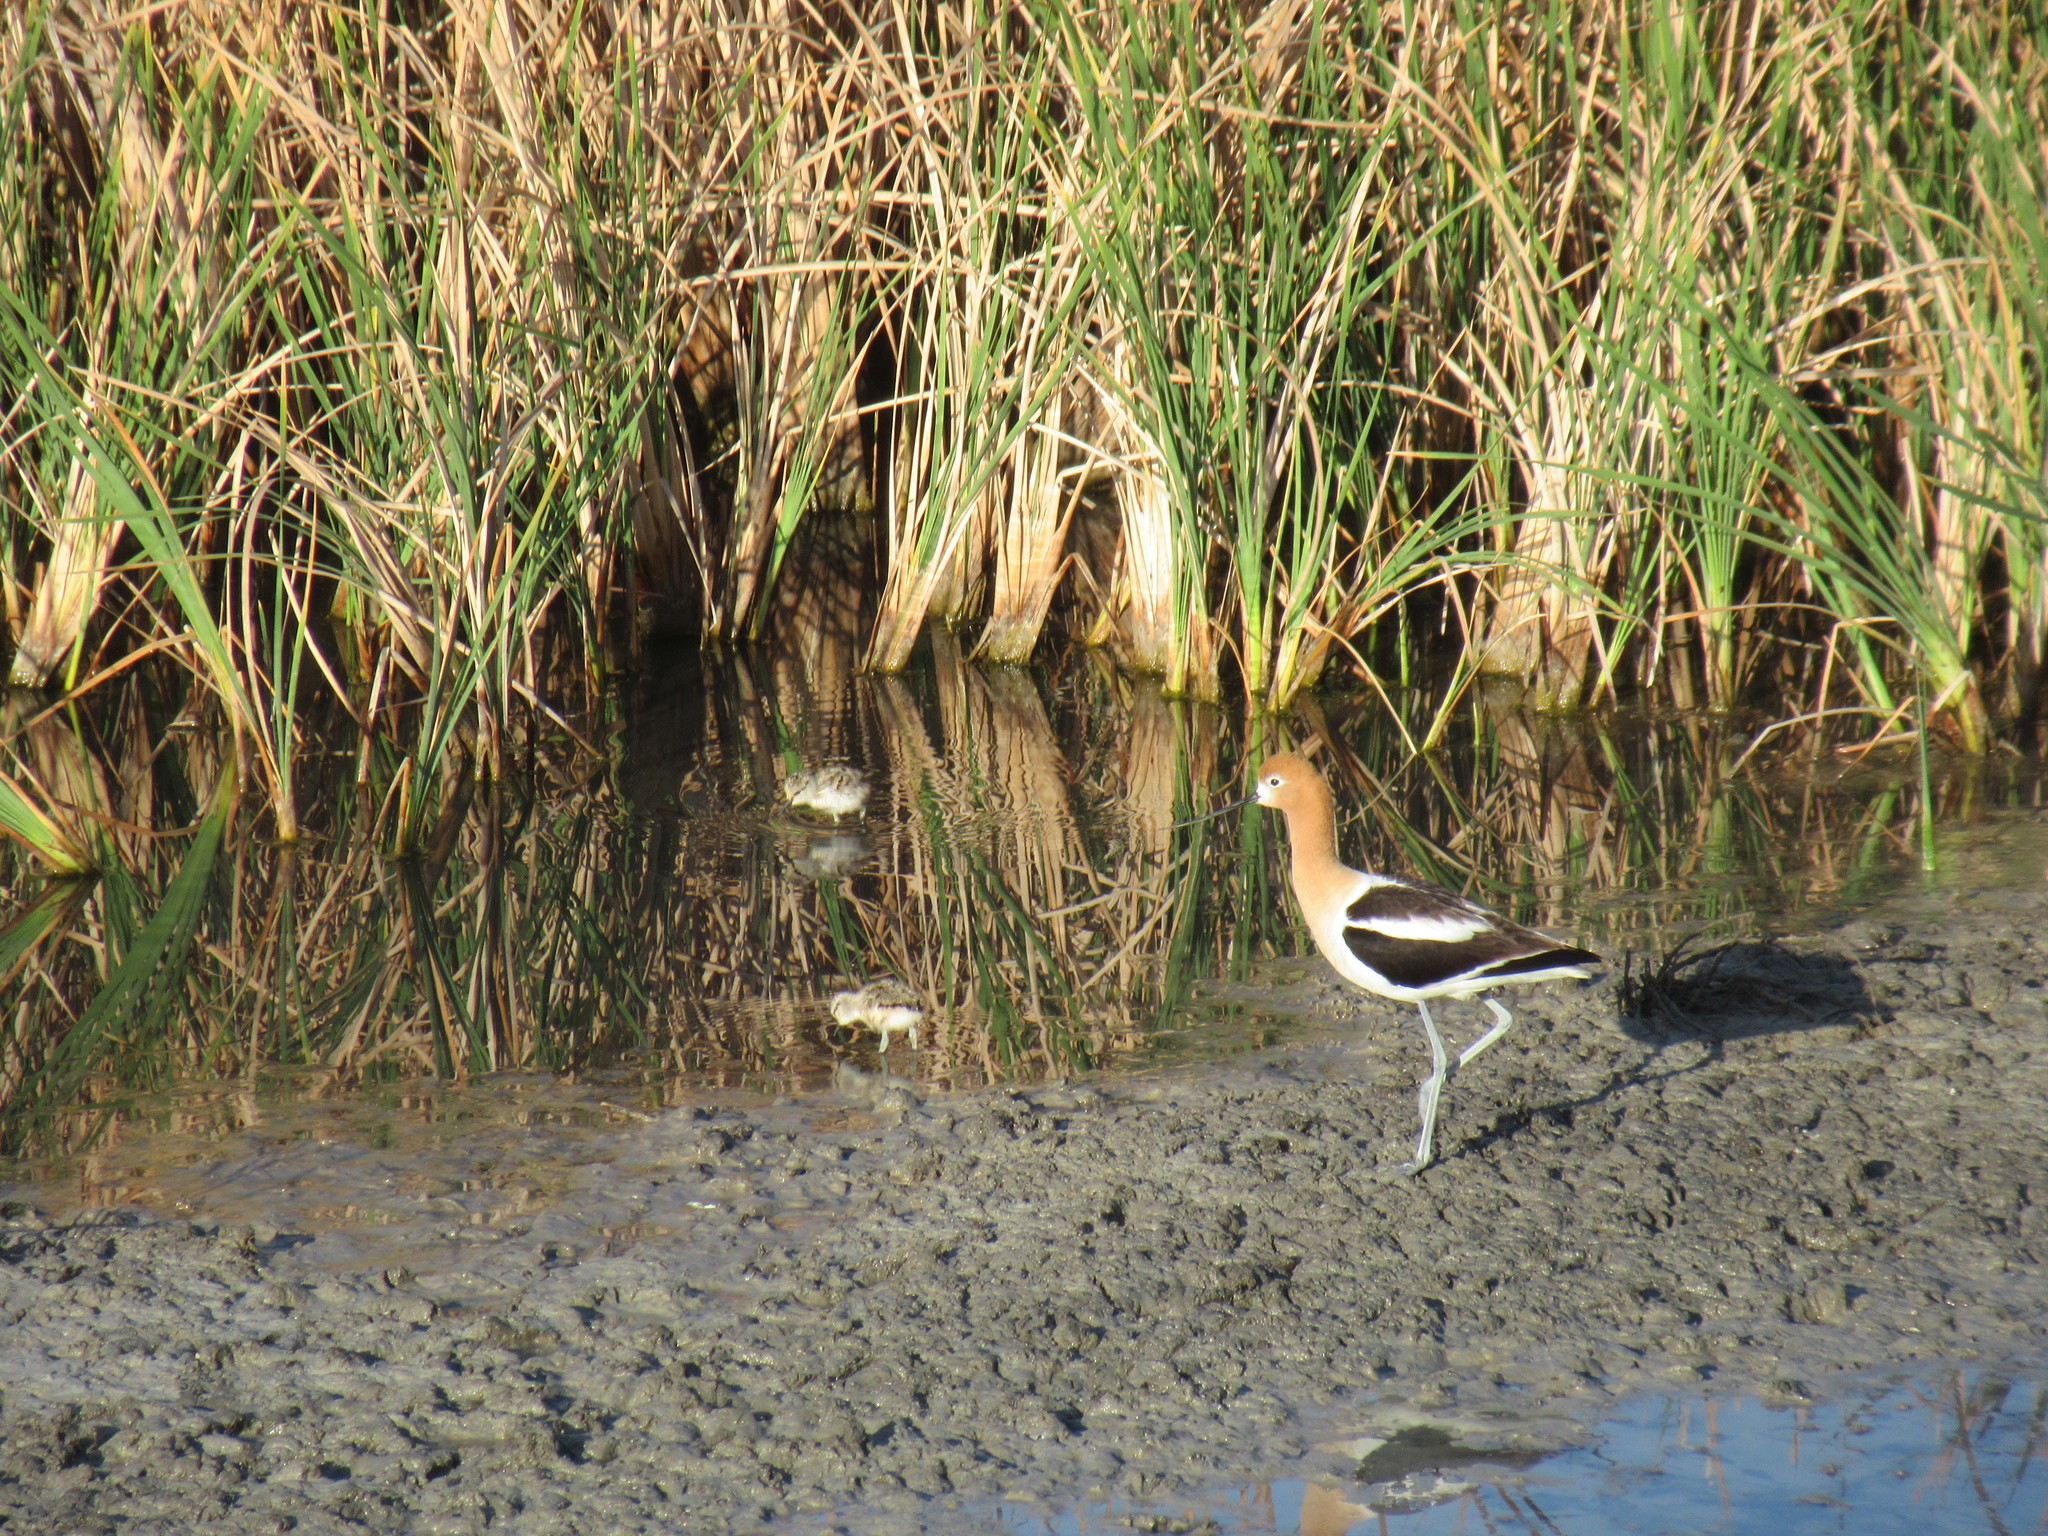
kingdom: Animalia
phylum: Chordata
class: Aves
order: Charadriiformes
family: Recurvirostridae
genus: Recurvirostra
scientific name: Recurvirostra americana
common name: American avocet
